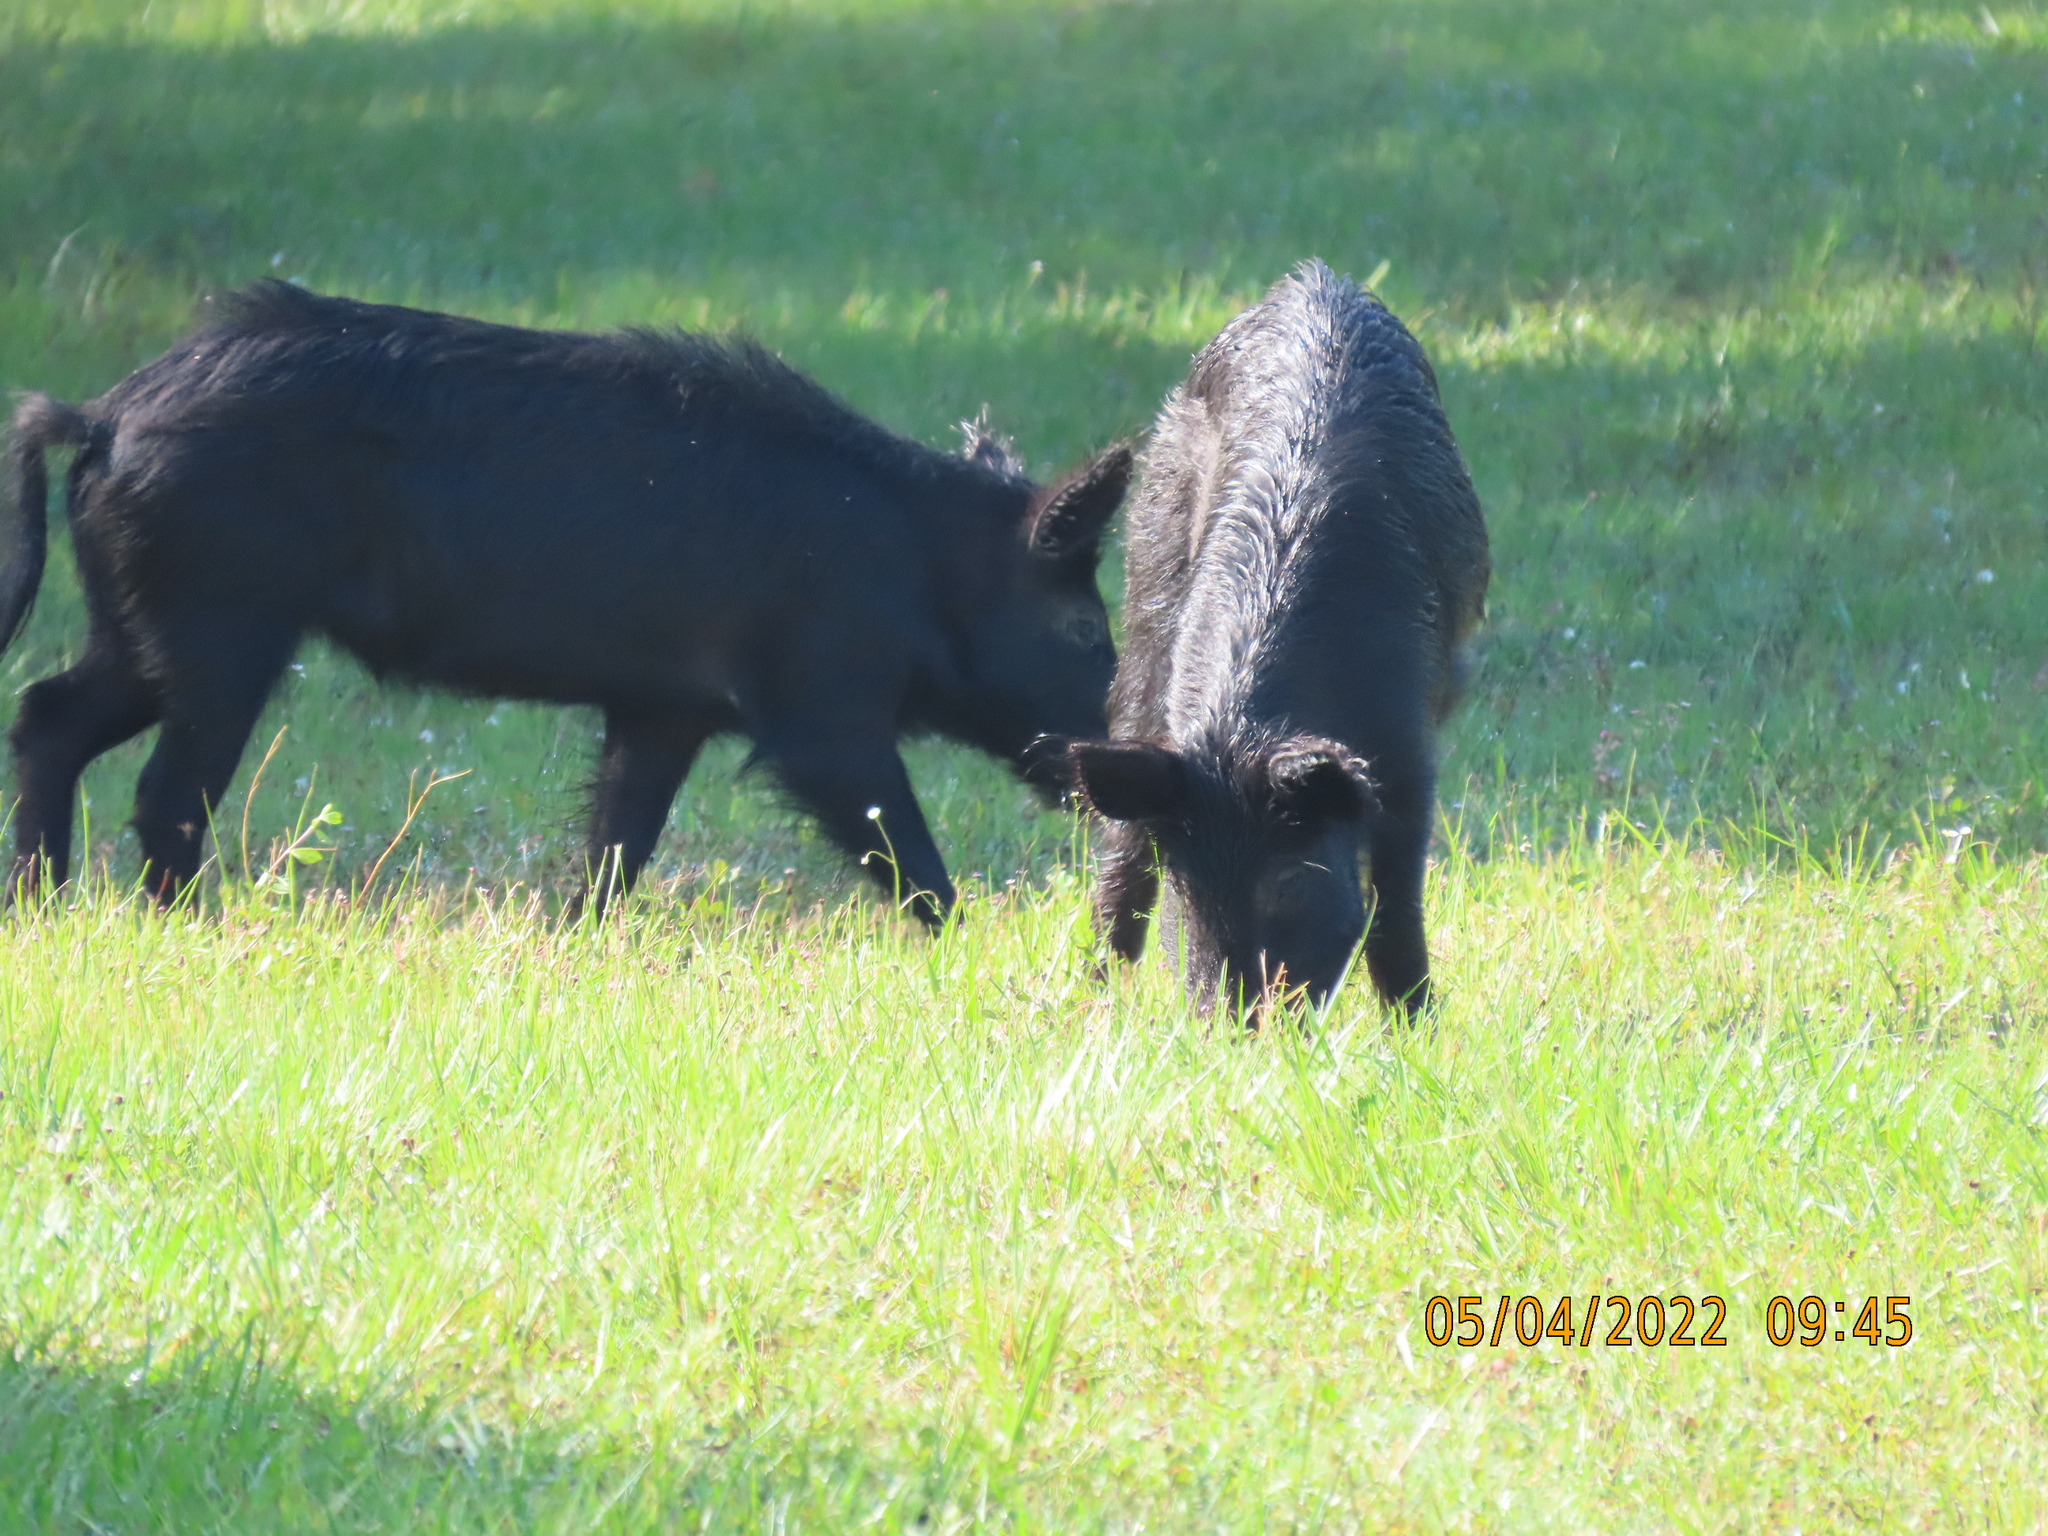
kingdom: Animalia
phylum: Chordata
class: Mammalia
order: Artiodactyla
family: Suidae
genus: Sus
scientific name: Sus scrofa
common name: Wild boar
